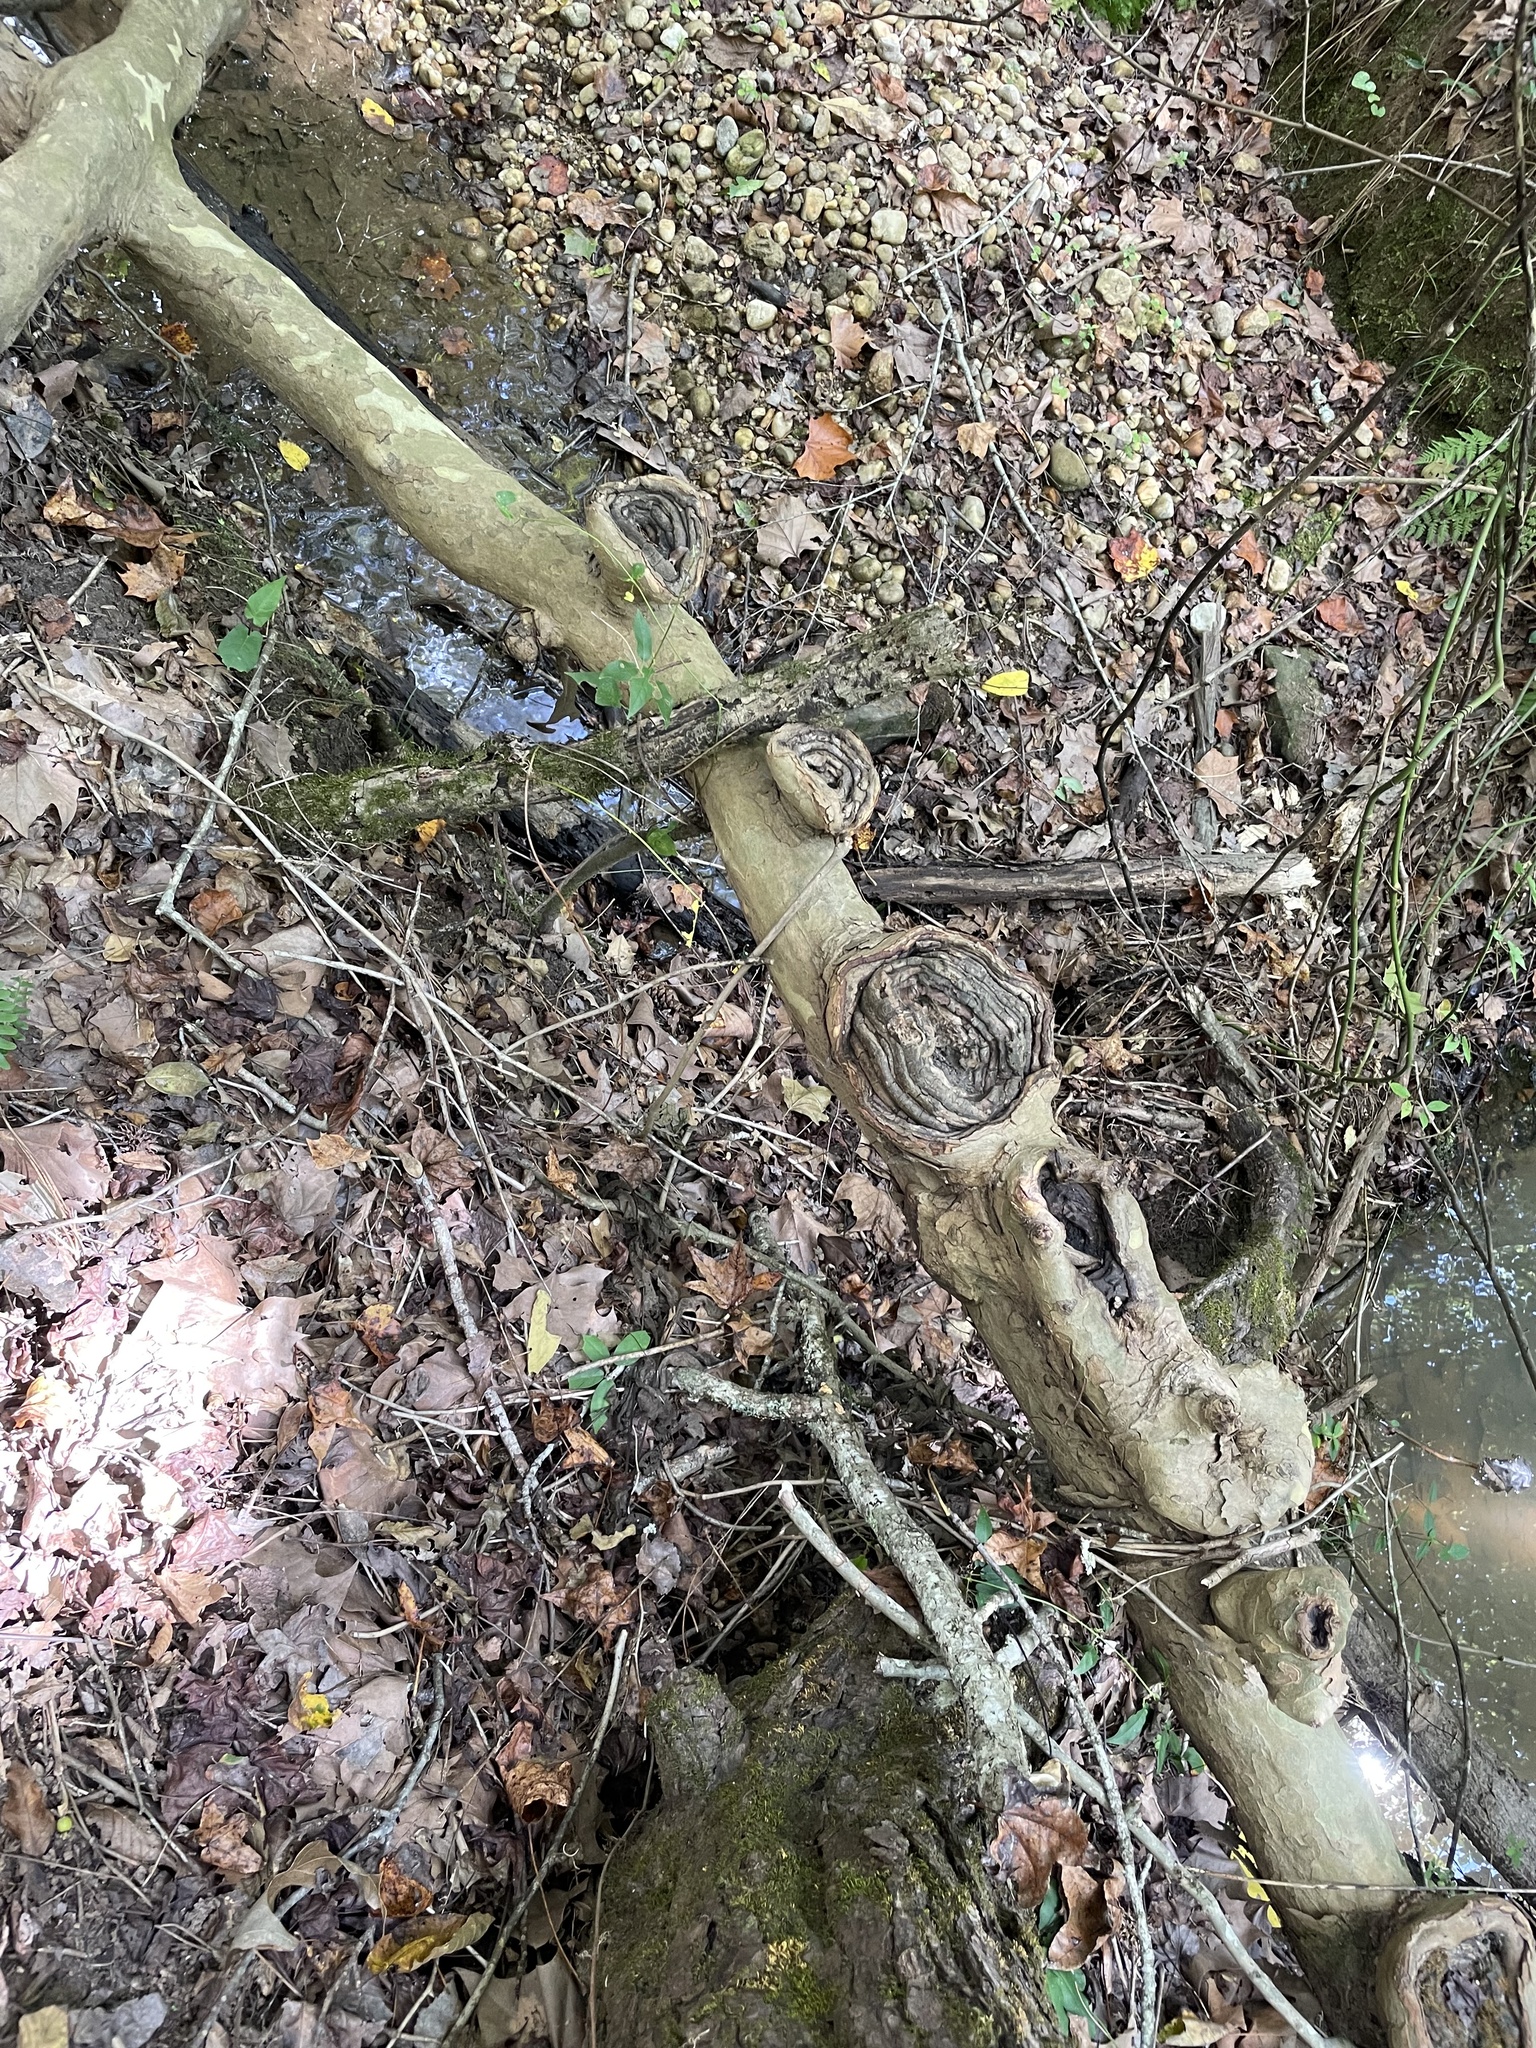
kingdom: Plantae
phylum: Tracheophyta
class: Magnoliopsida
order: Proteales
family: Platanaceae
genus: Platanus
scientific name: Platanus occidentalis
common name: American sycamore
